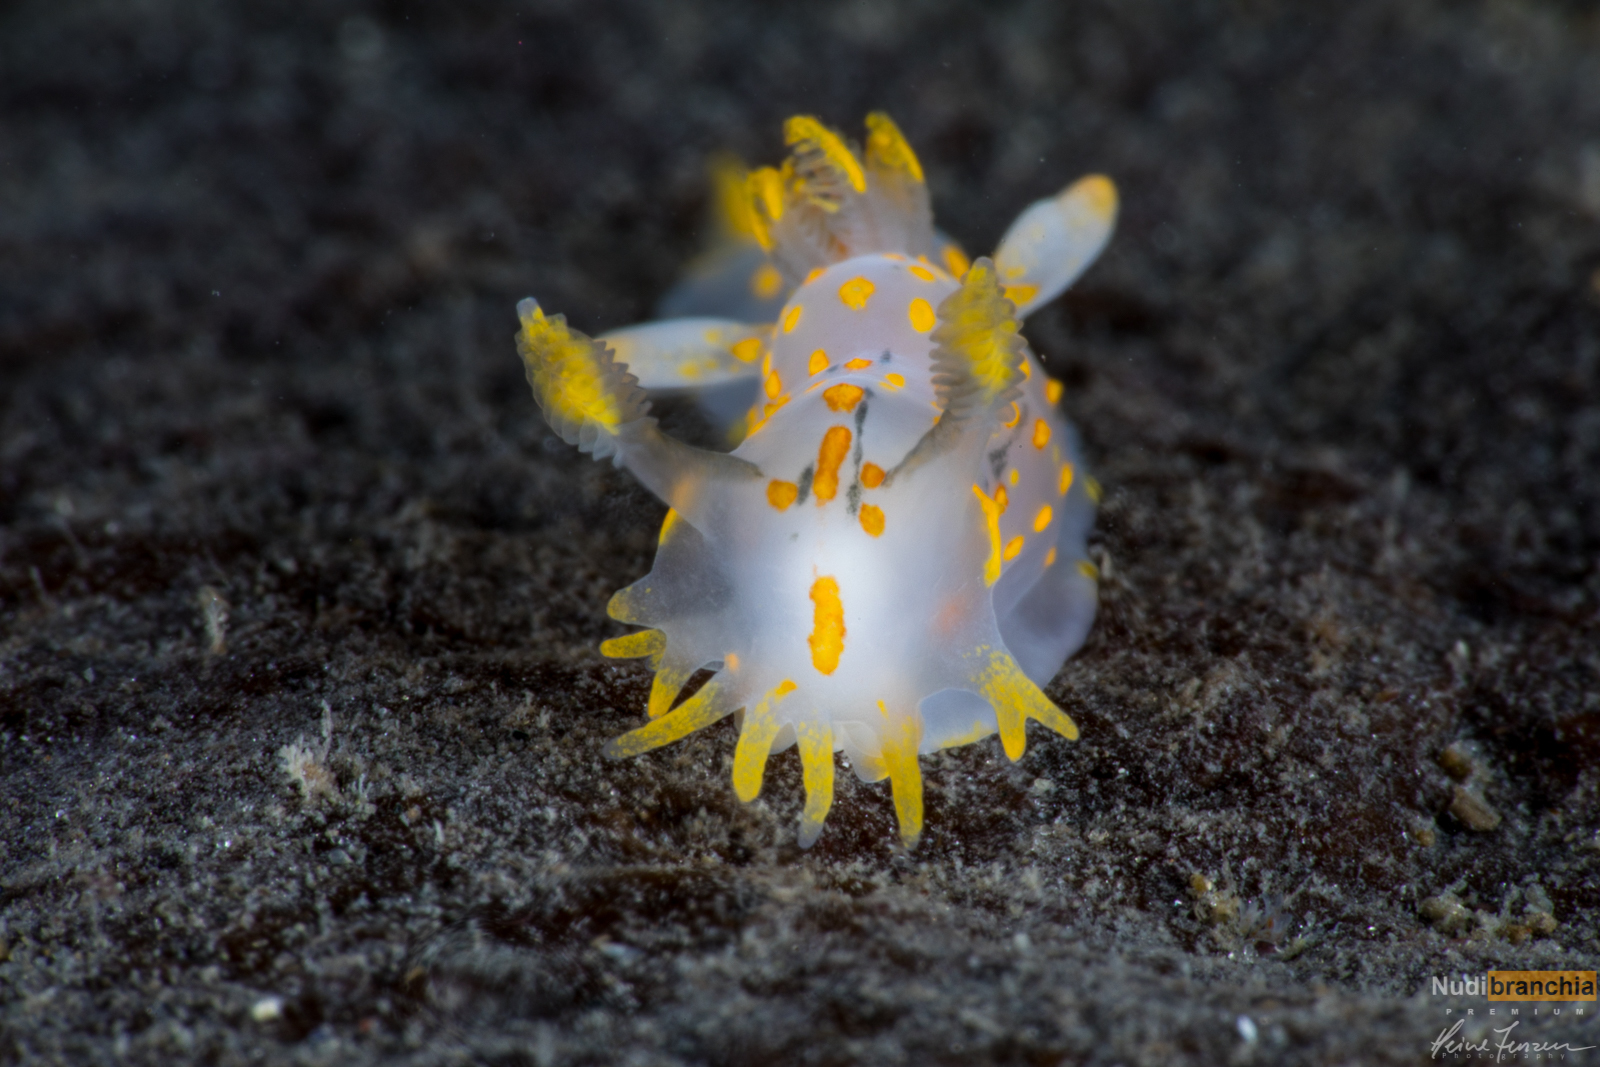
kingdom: Animalia
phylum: Mollusca
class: Gastropoda
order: Nudibranchia
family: Polyceridae
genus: Polycera
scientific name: Polycera quadrilineata
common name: Four-striped polycera
